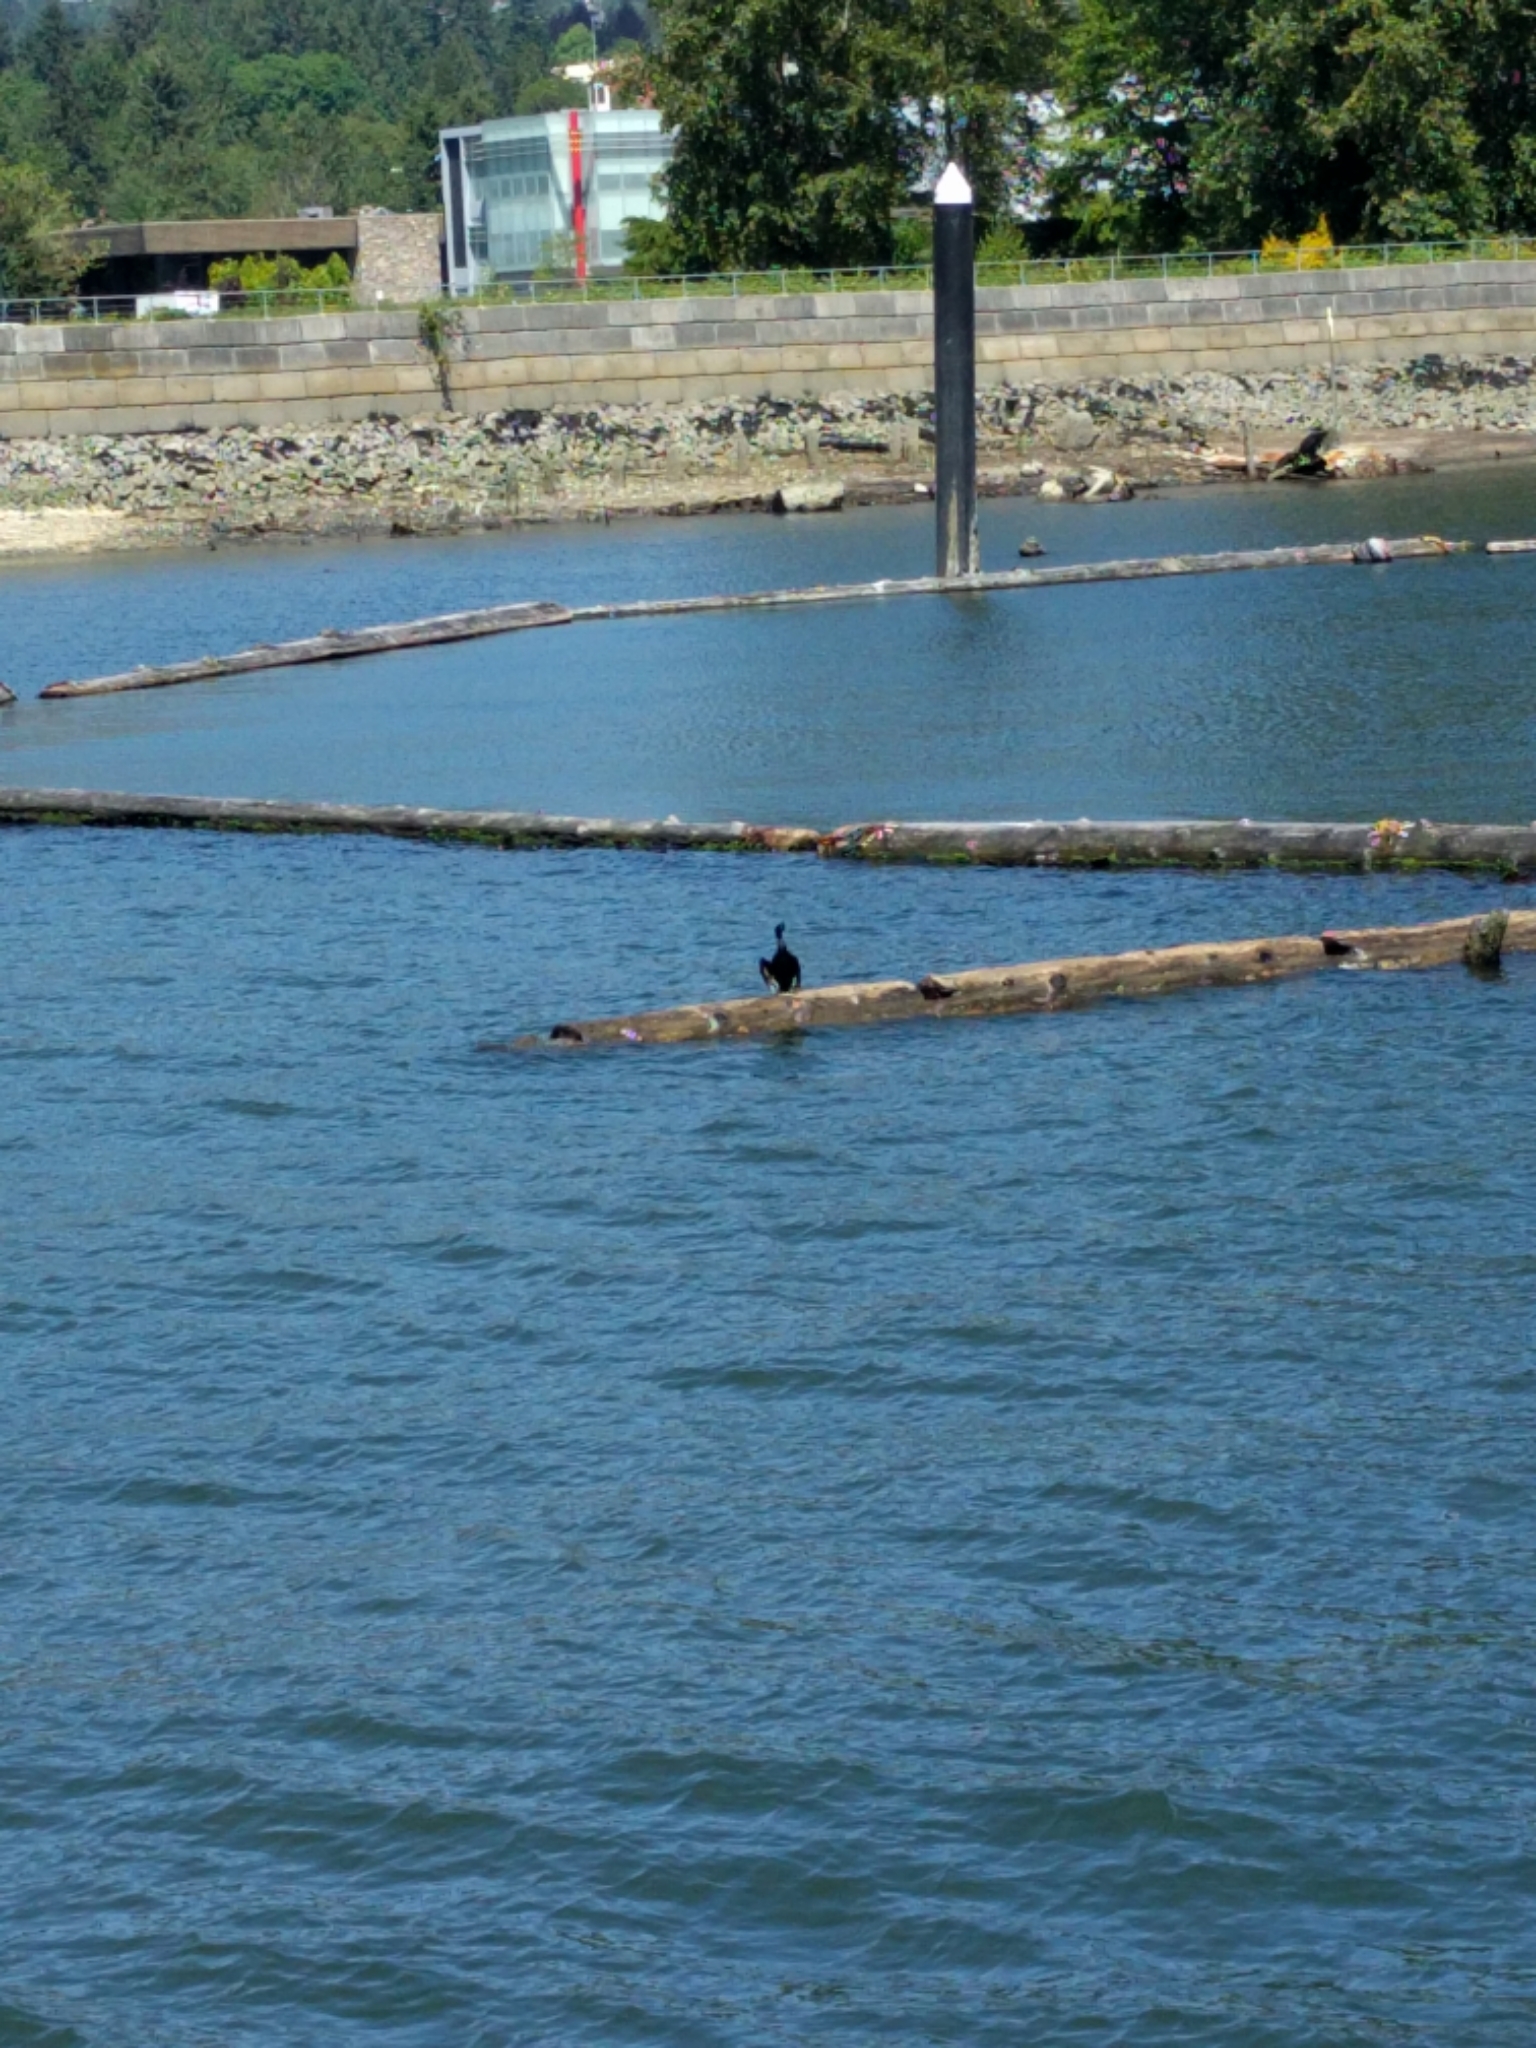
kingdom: Animalia
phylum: Chordata
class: Aves
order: Suliformes
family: Phalacrocoracidae
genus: Phalacrocorax
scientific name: Phalacrocorax pelagicus
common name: Pelagic cormorant
